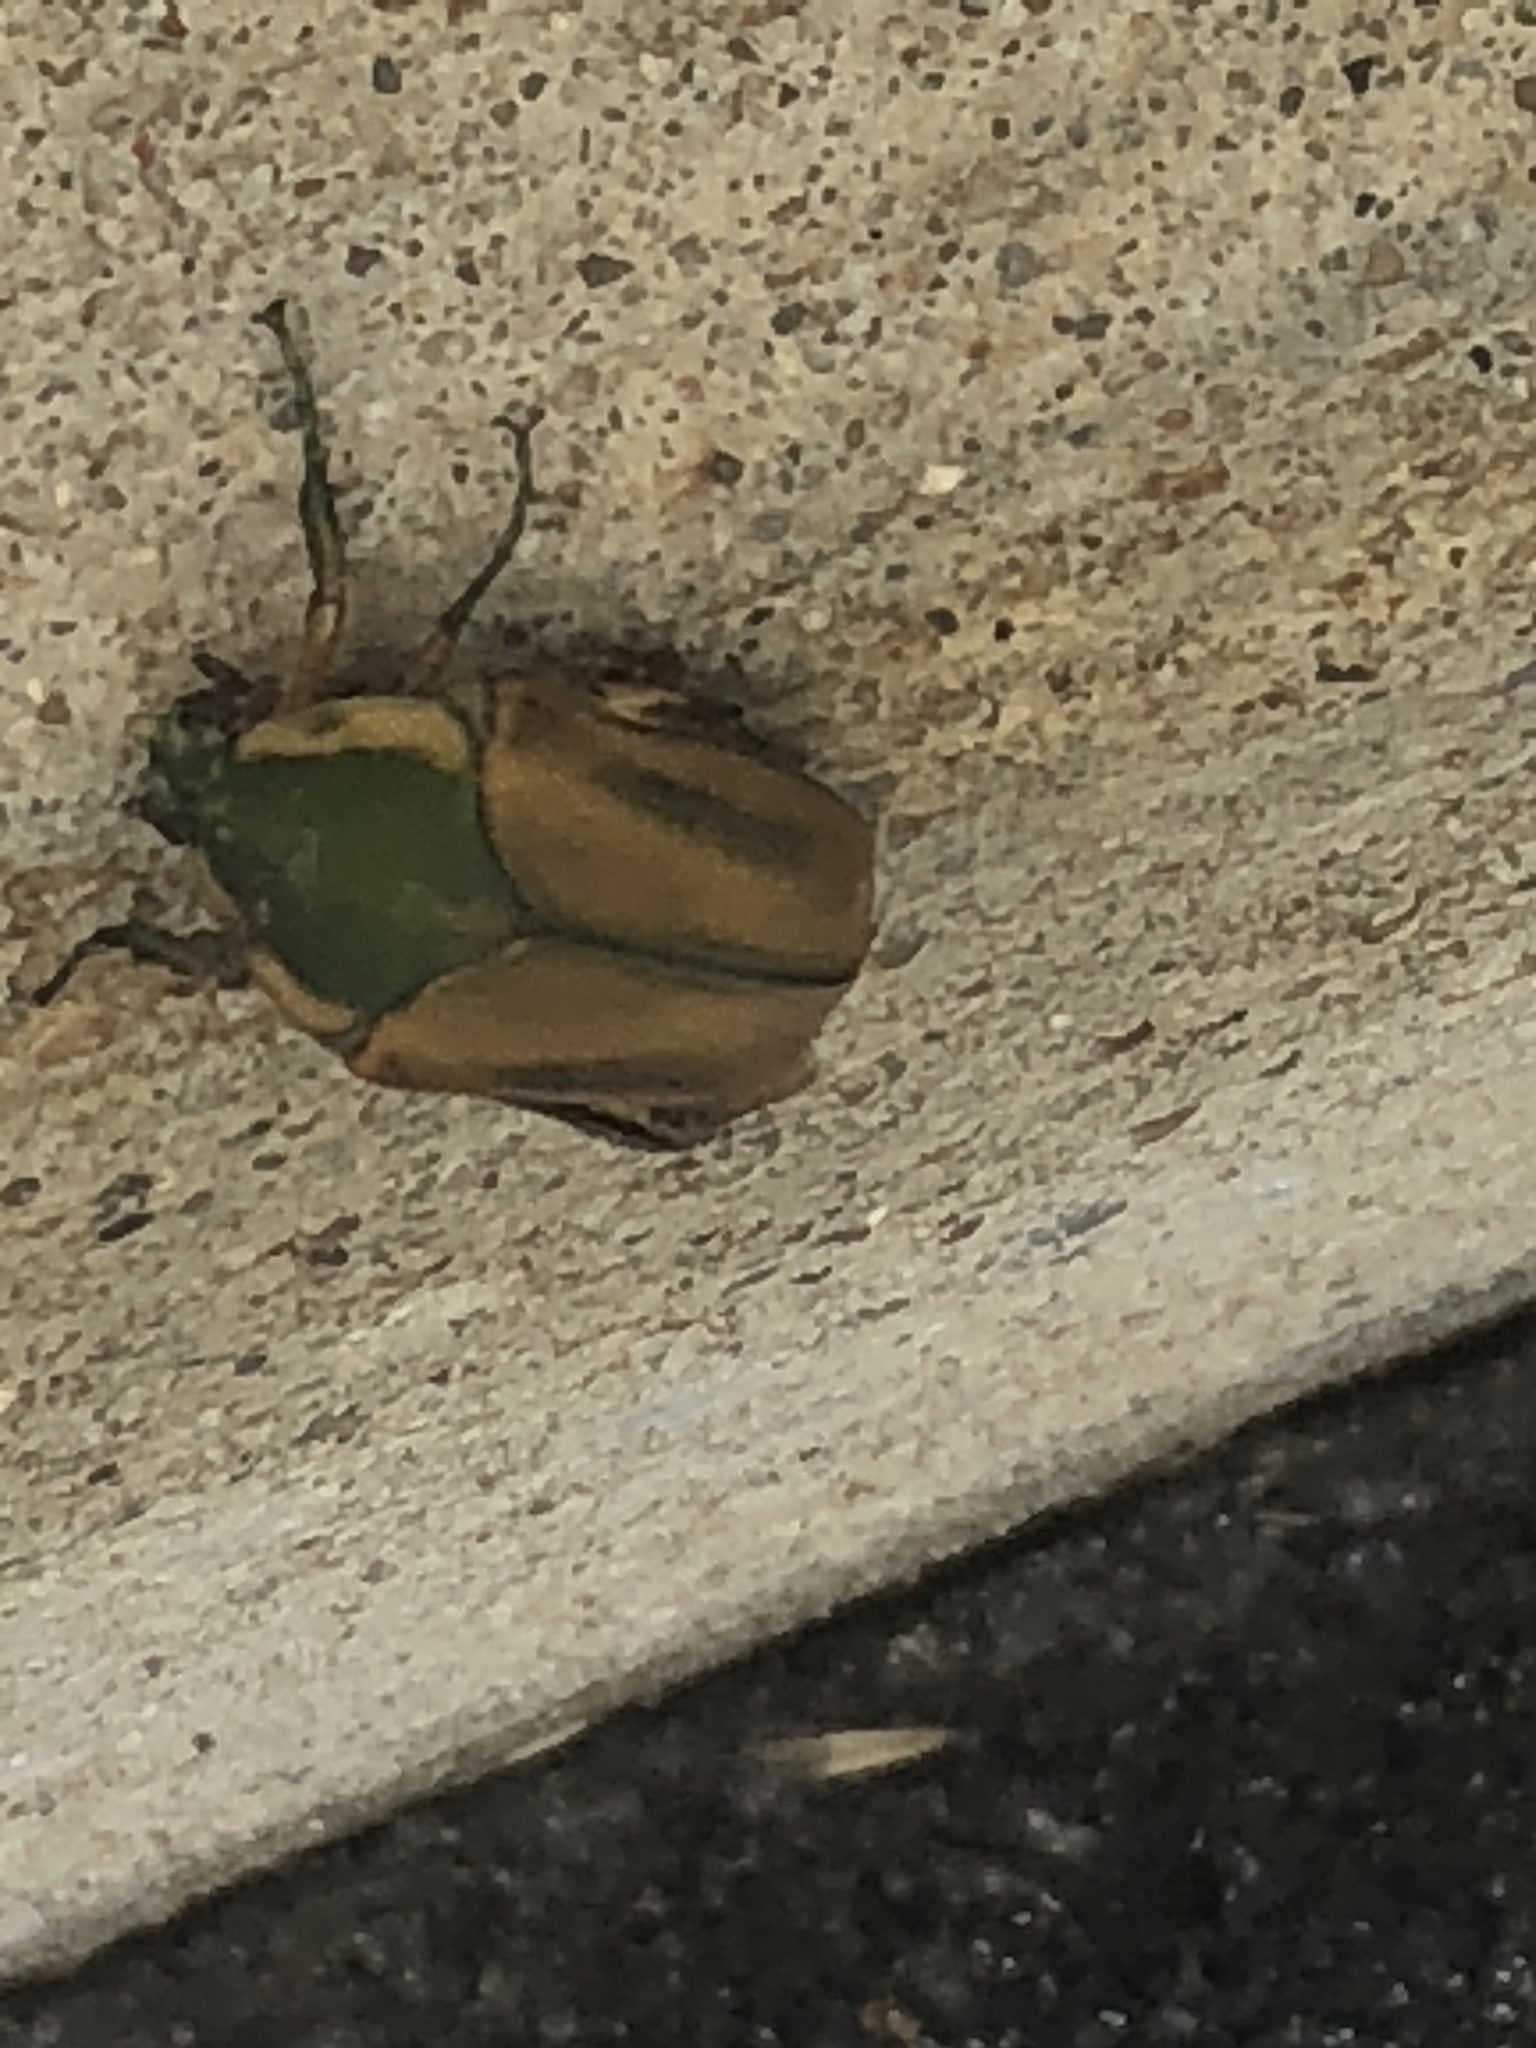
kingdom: Animalia
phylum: Arthropoda
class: Insecta
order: Coleoptera
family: Scarabaeidae
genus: Cotinis
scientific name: Cotinis nitida
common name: Common green june beetle
